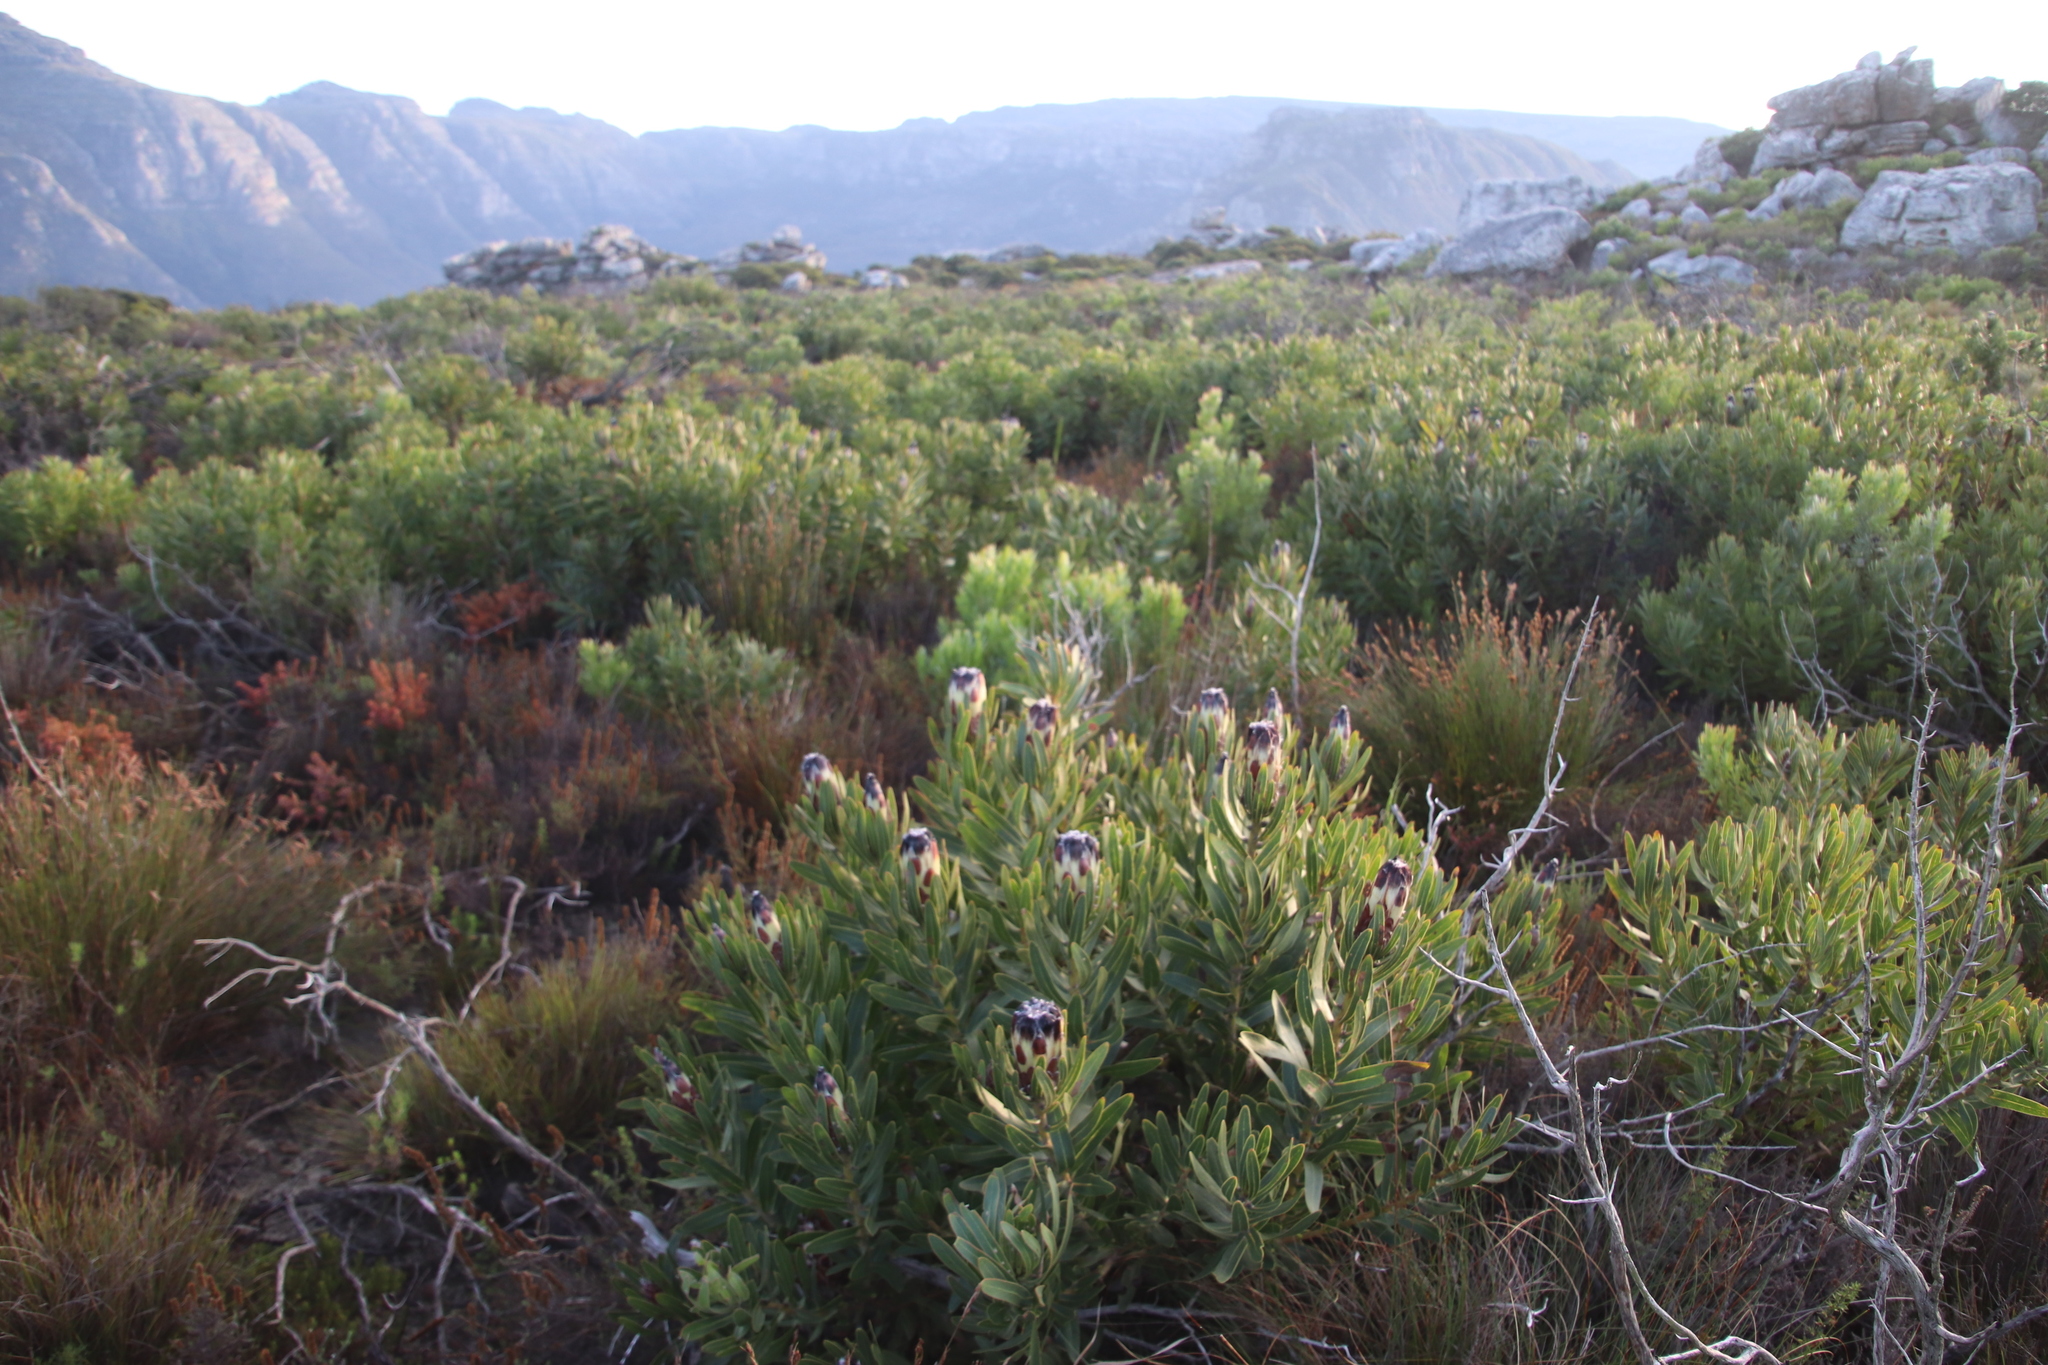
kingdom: Plantae
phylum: Tracheophyta
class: Magnoliopsida
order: Proteales
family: Proteaceae
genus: Protea
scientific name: Protea lepidocarpodendron
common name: Black-bearded protea
